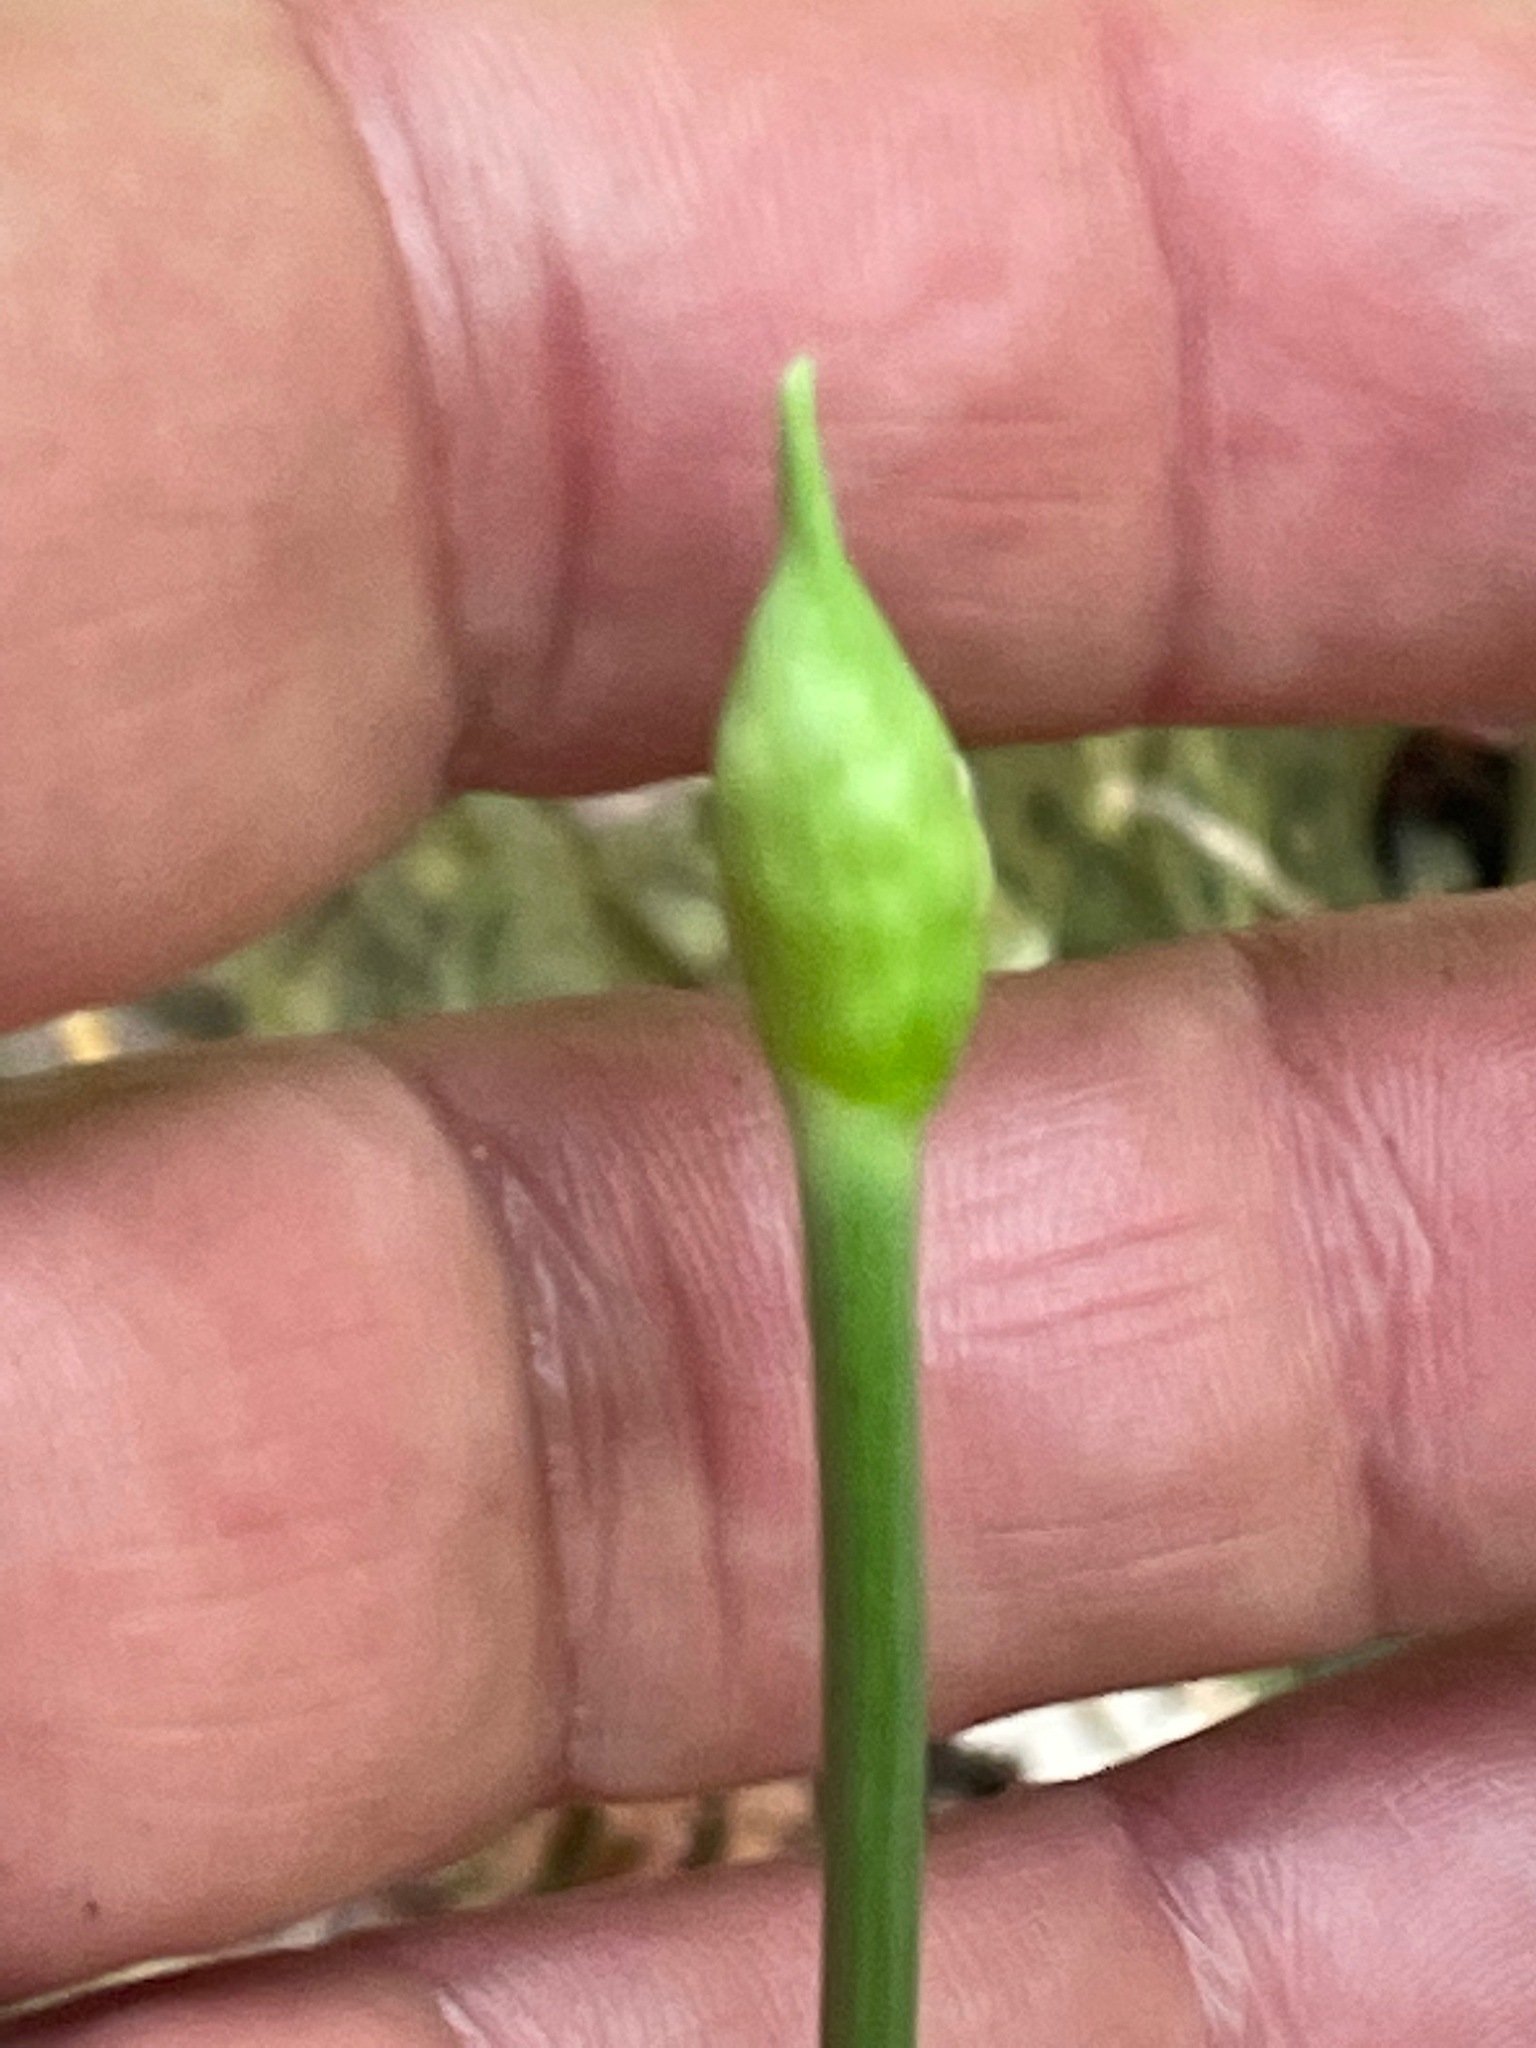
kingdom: Plantae
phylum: Tracheophyta
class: Liliopsida
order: Asparagales
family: Amaryllidaceae
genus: Allium
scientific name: Allium tricoccum
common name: Ramp
